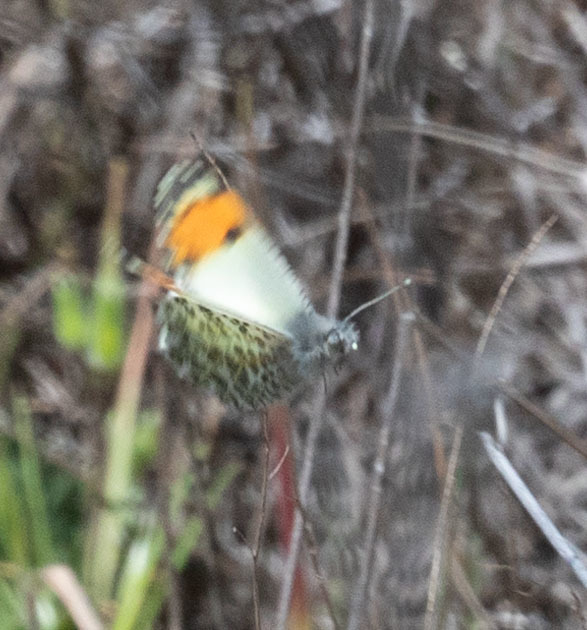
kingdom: Animalia
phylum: Arthropoda
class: Insecta
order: Lepidoptera
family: Pieridae
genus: Anthocharis
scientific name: Anthocharis sara
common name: Sara's orangetip
